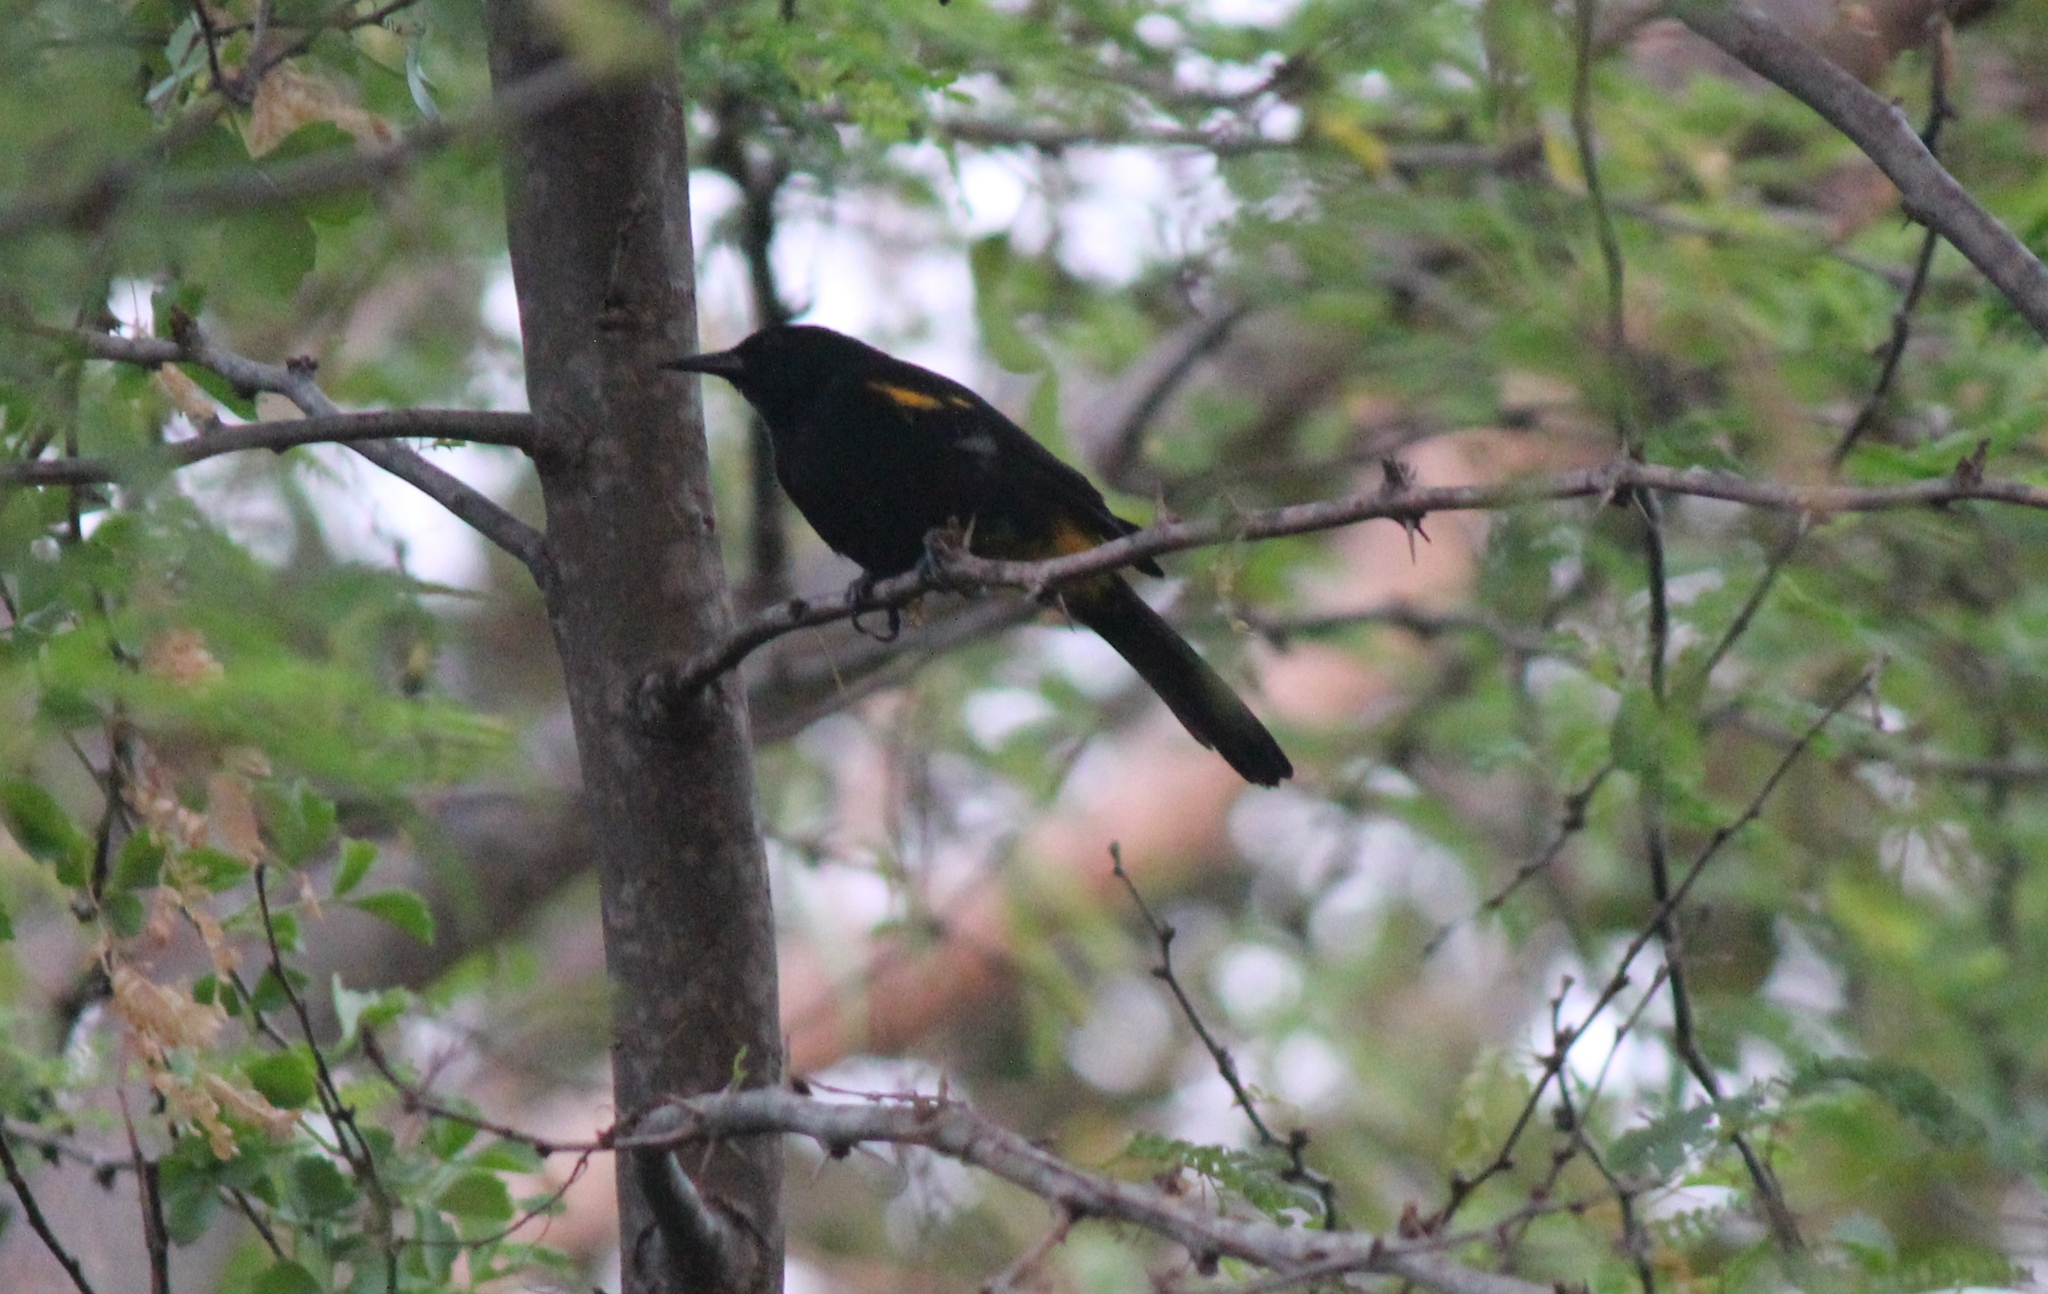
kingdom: Animalia
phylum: Chordata
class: Aves
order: Passeriformes
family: Icteridae
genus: Icterus
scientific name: Icterus portoricensis
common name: Puerto rican oriole
